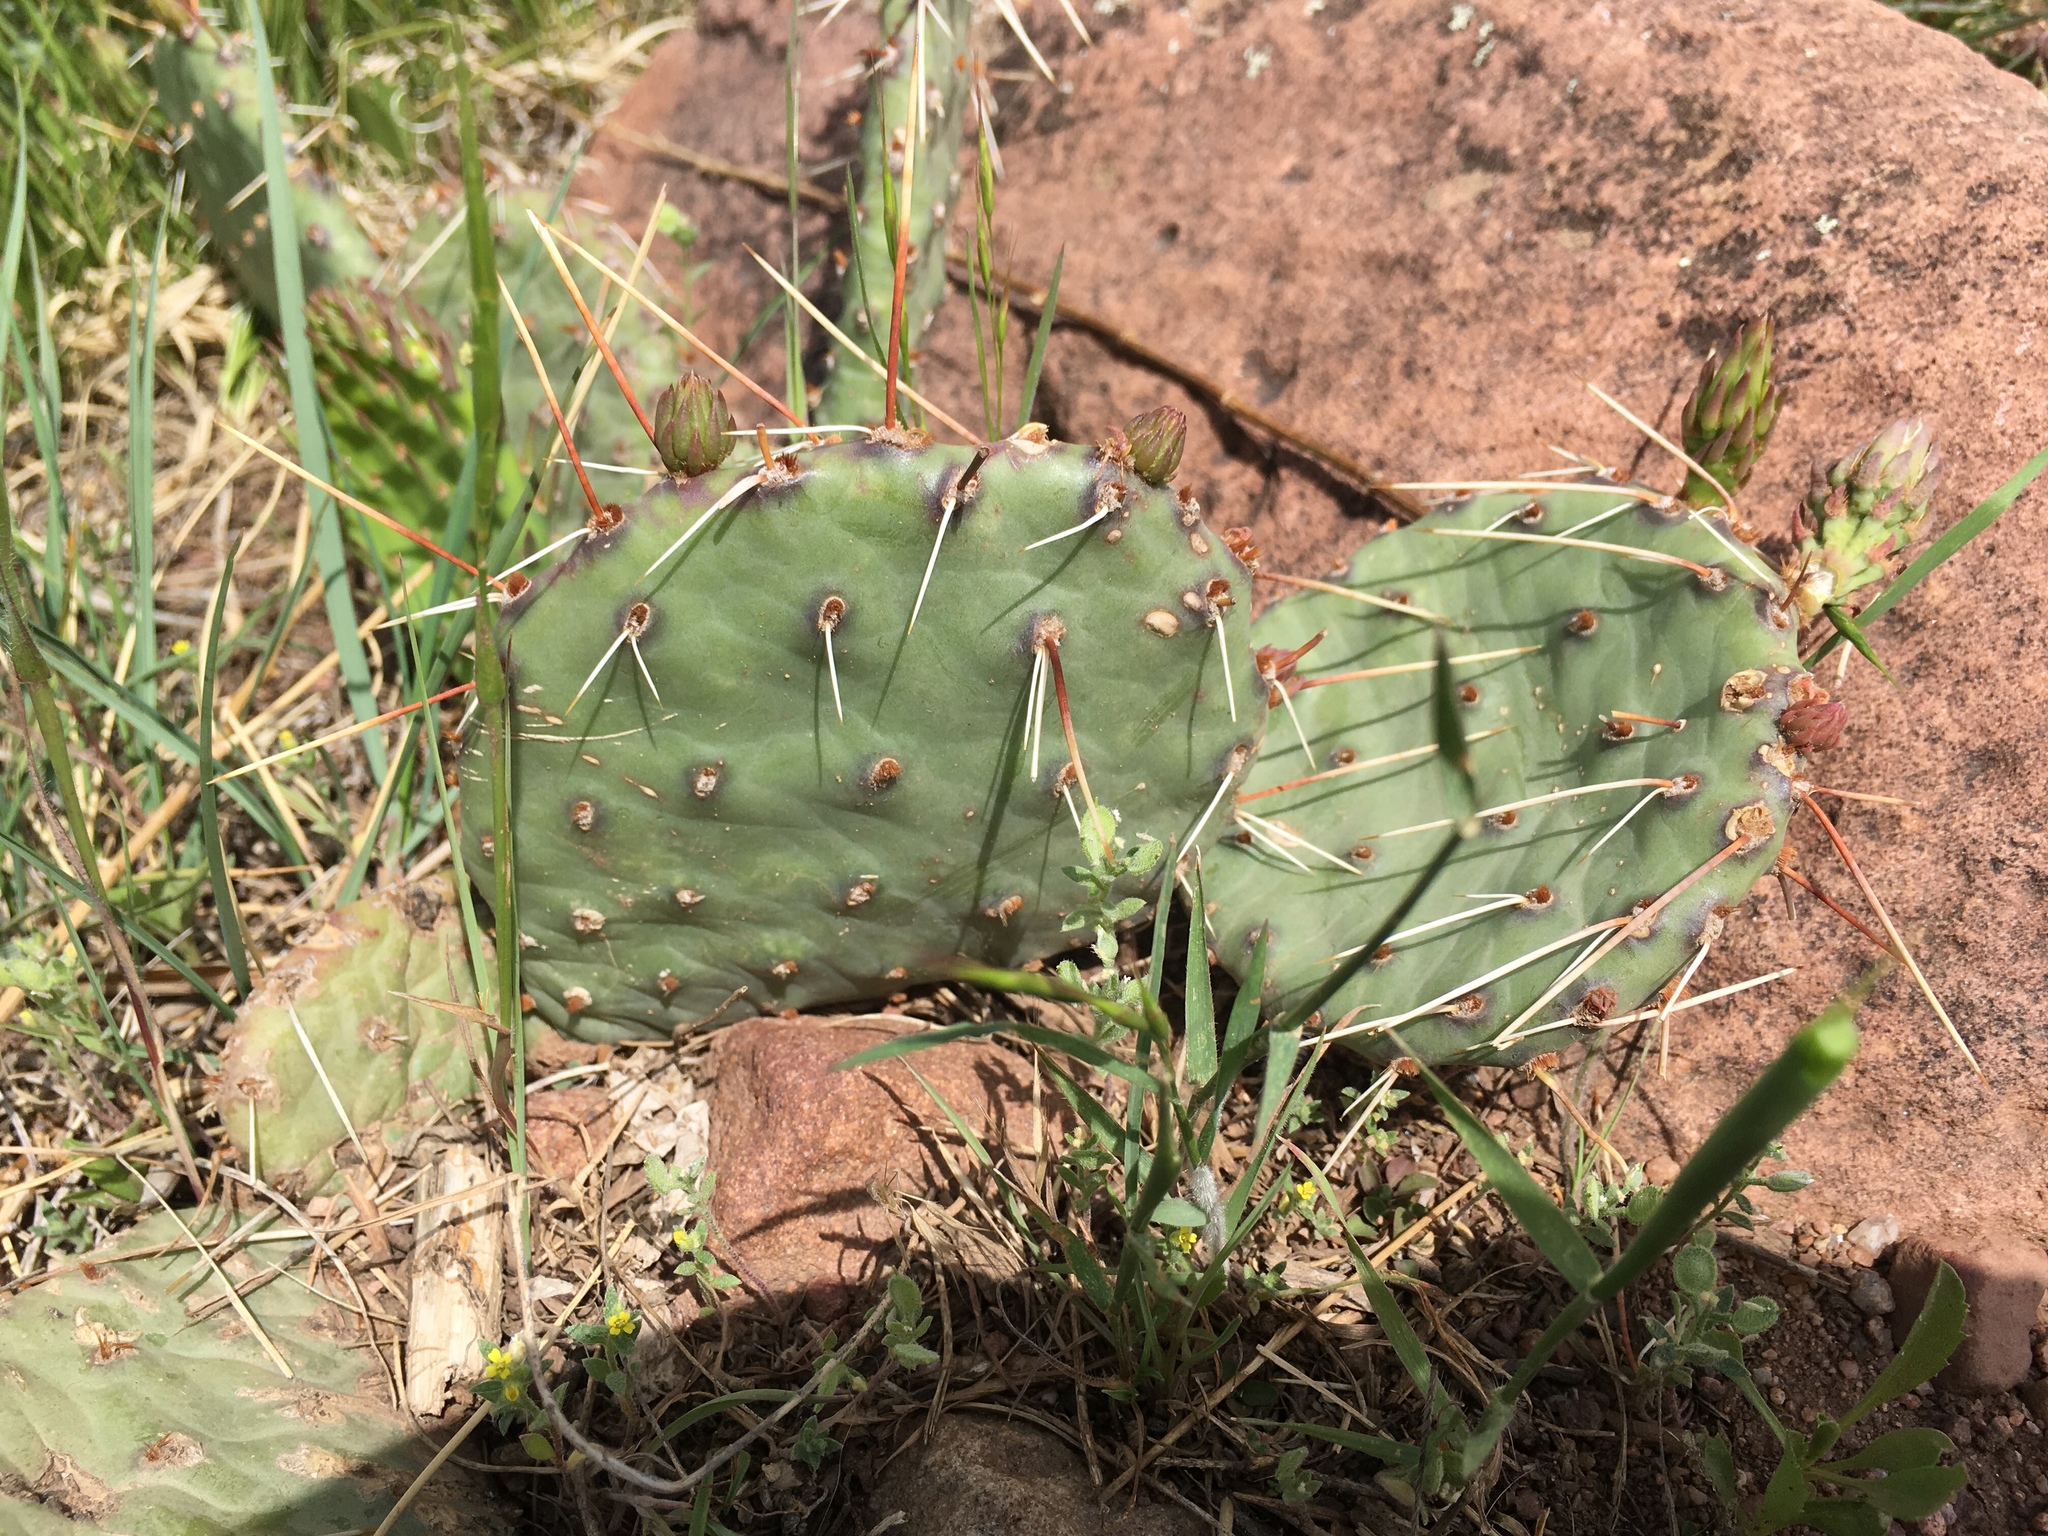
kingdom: Plantae
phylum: Tracheophyta
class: Magnoliopsida
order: Caryophyllales
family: Cactaceae
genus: Opuntia
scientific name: Opuntia cymochila
